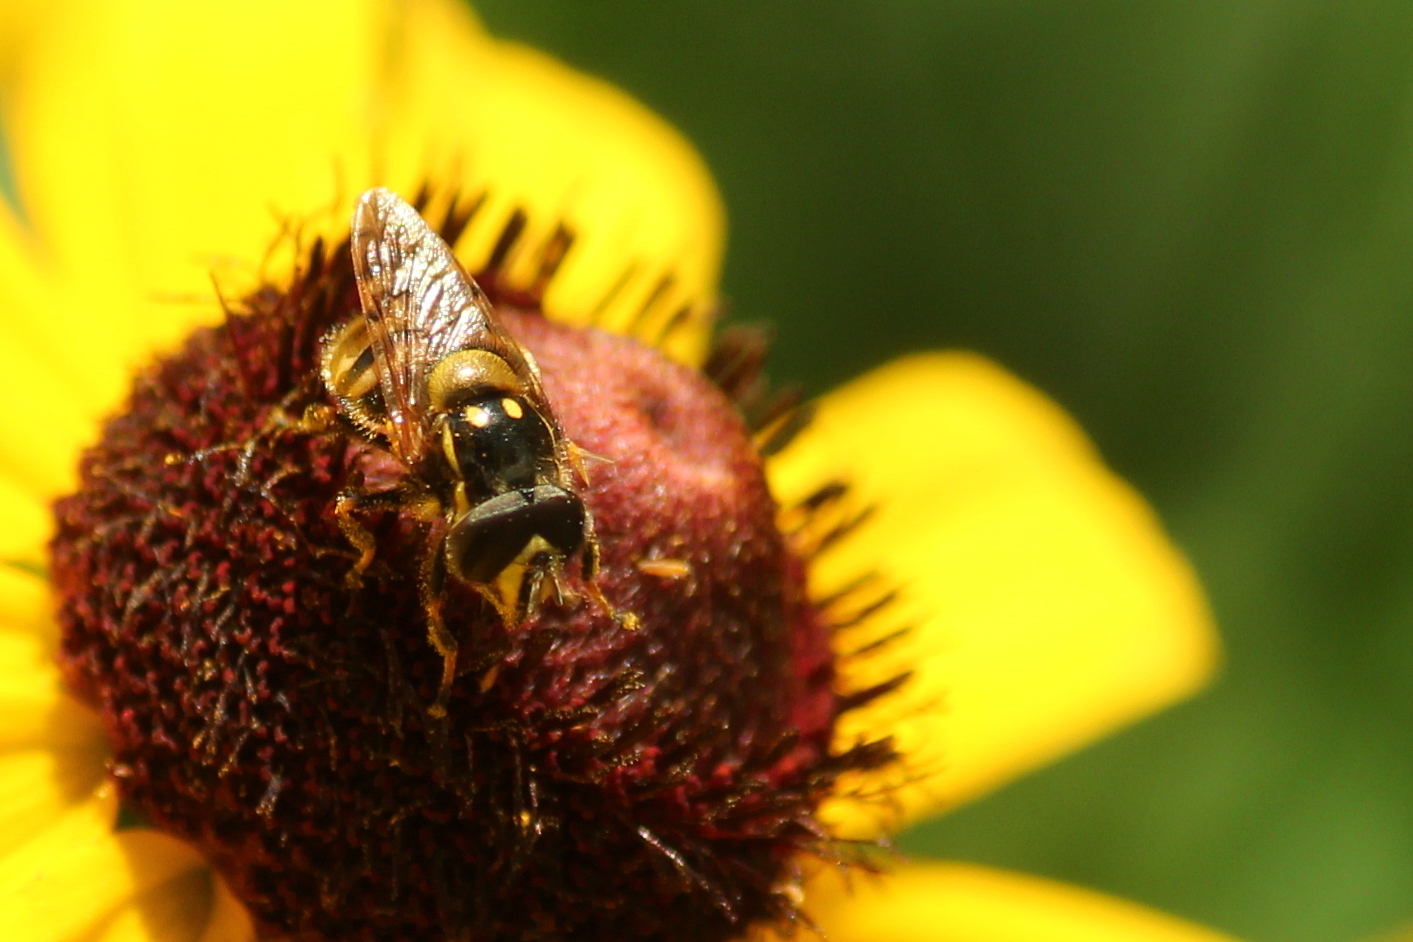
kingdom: Animalia
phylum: Arthropoda
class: Insecta
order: Diptera
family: Syrphidae
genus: Copestylum
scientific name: Copestylum vittatum
